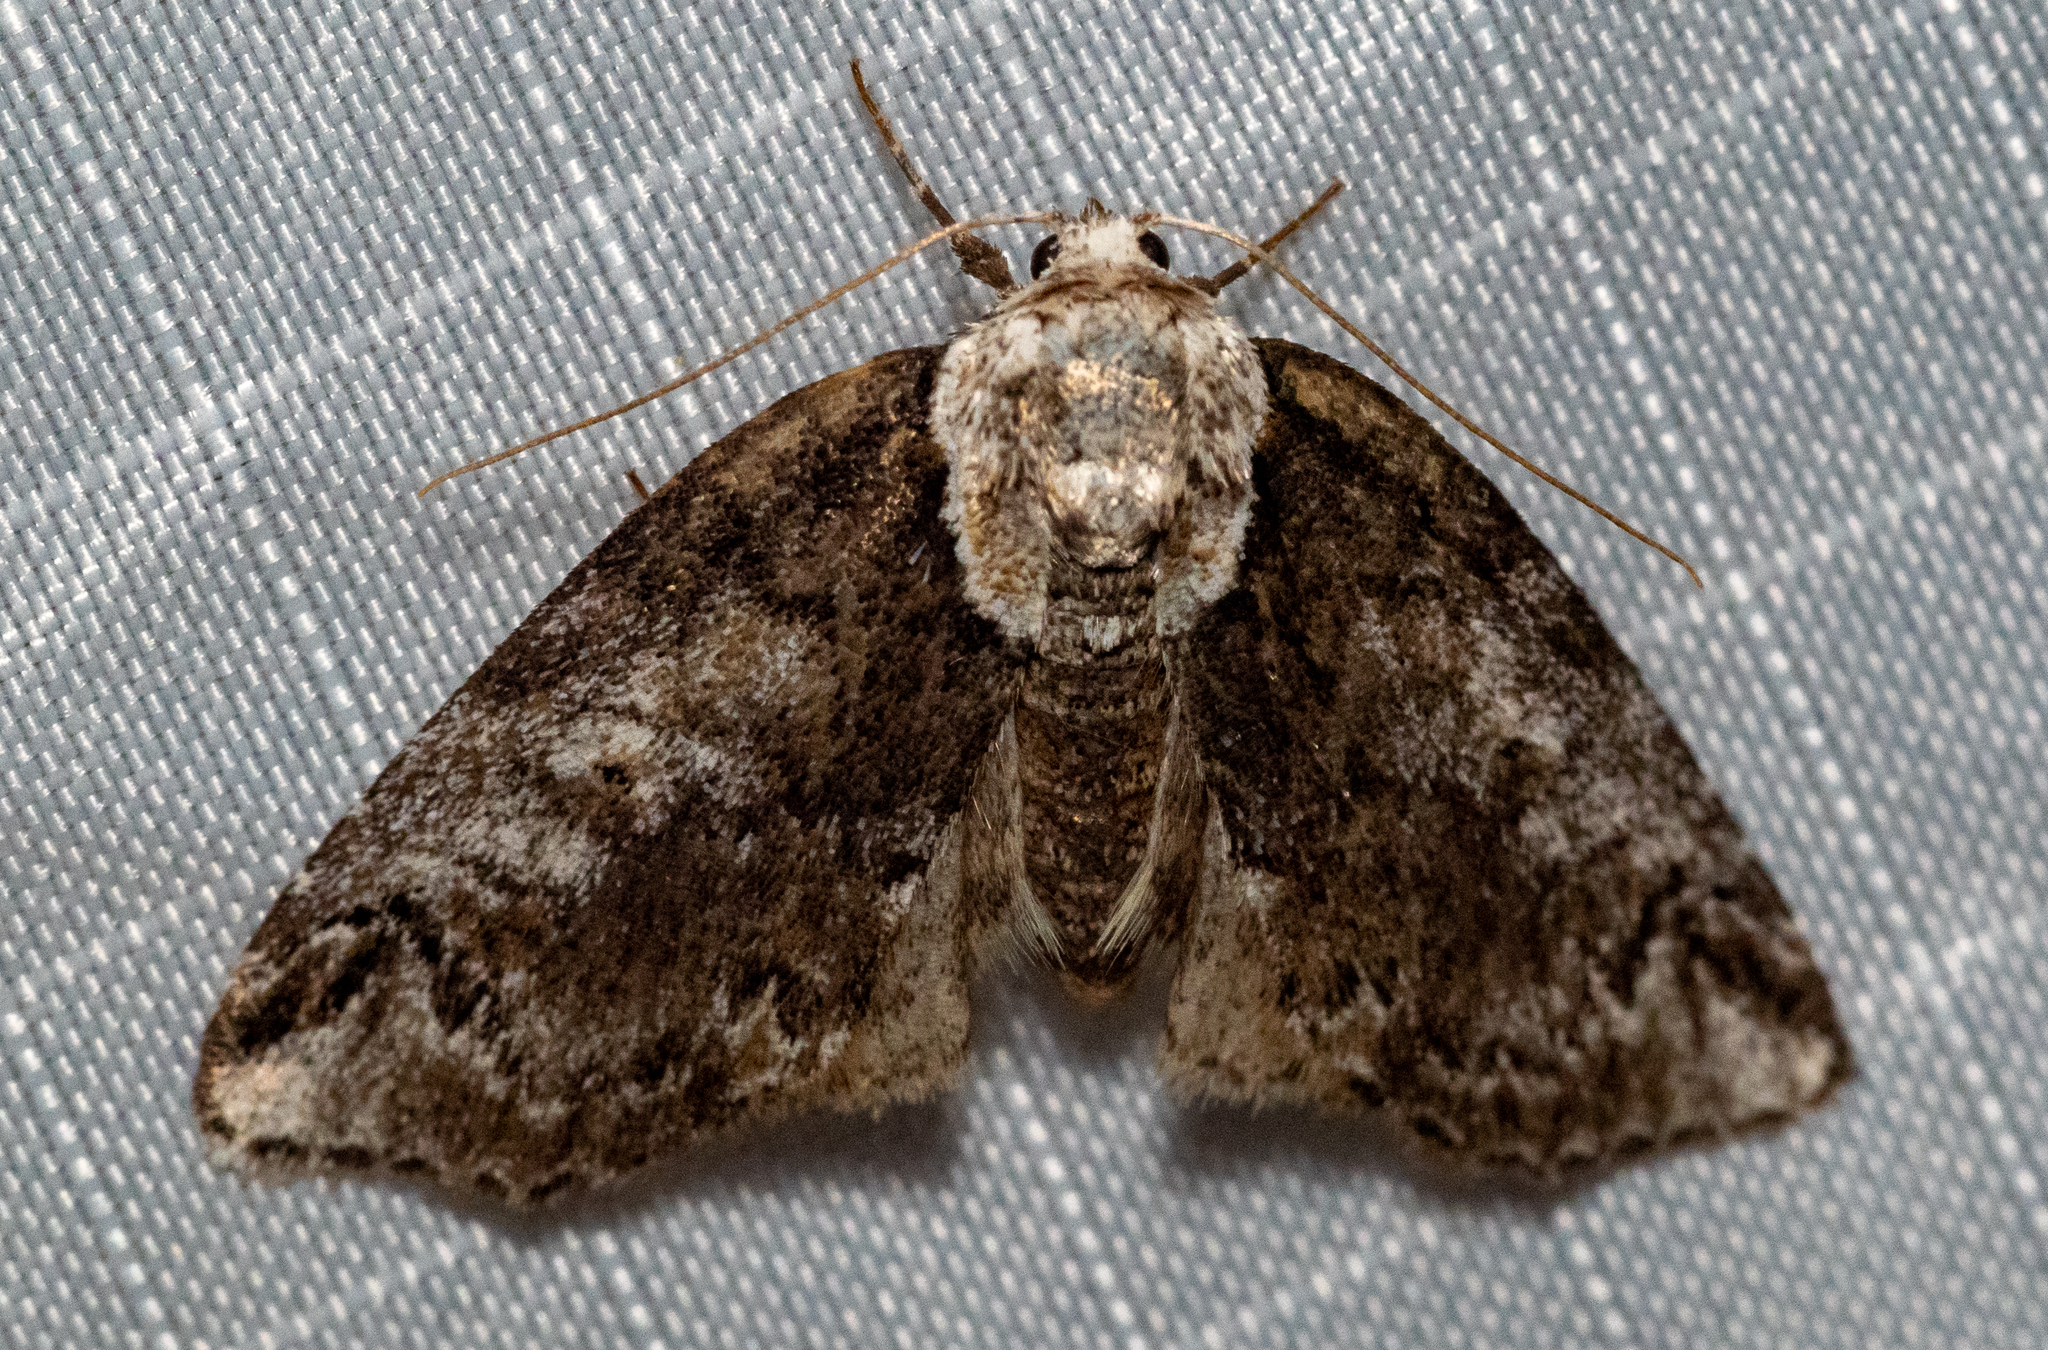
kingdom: Animalia
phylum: Arthropoda
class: Insecta
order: Lepidoptera
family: Nolidae
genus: Baileya
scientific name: Baileya ophthalmica
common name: Eyed baileya moth
